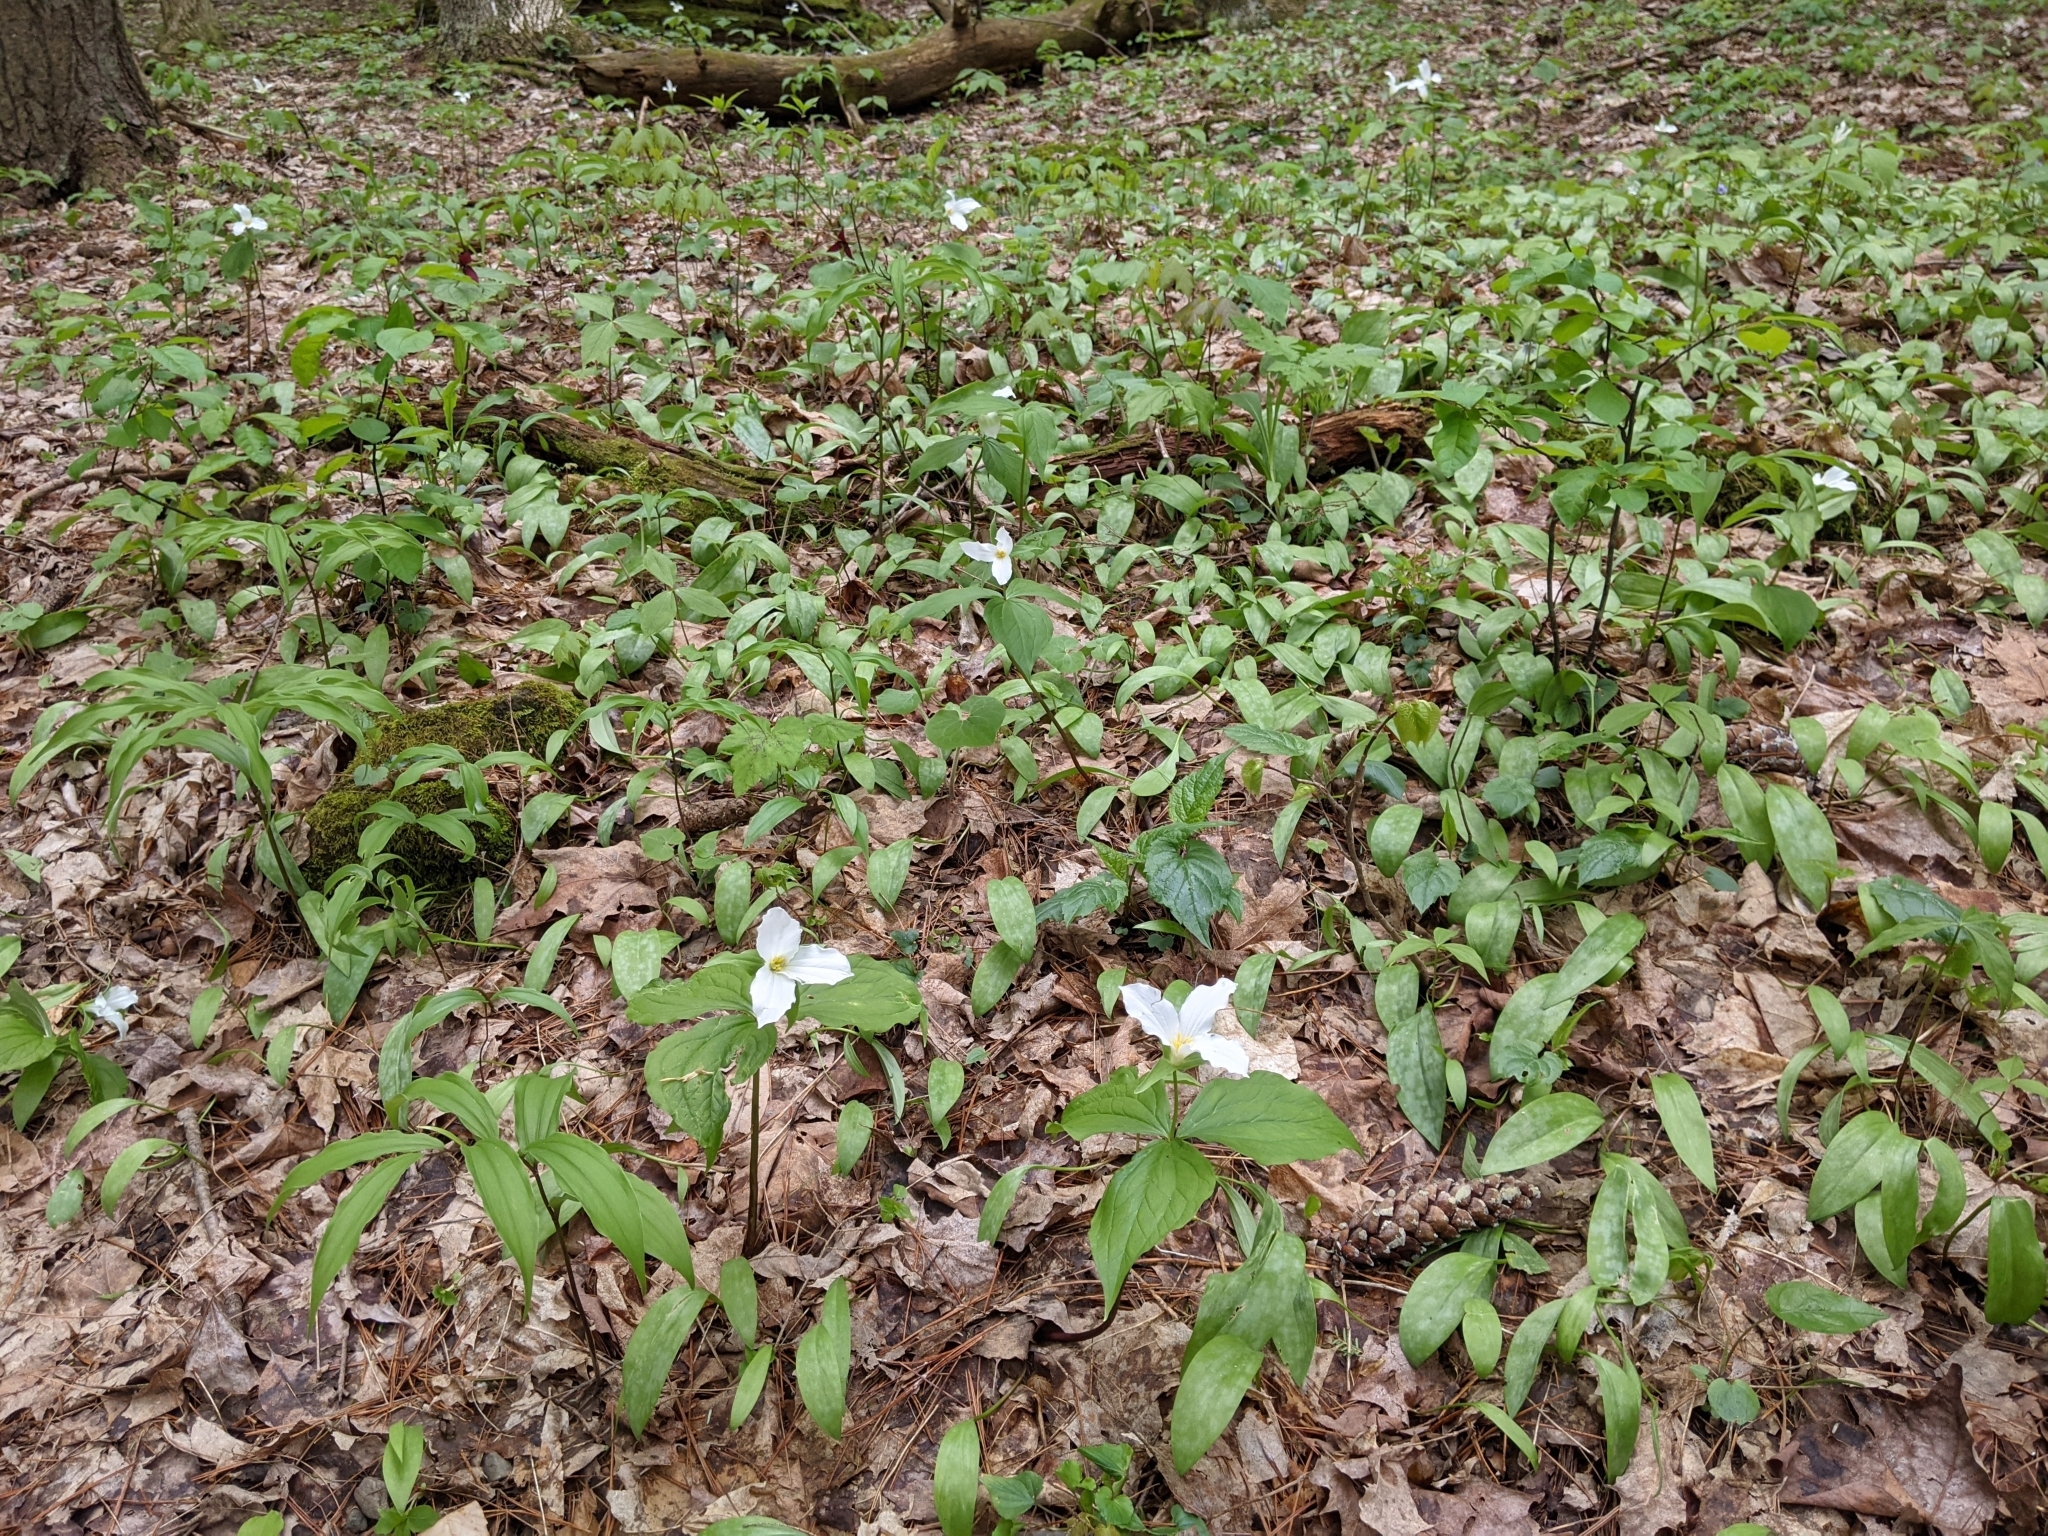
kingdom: Plantae
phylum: Tracheophyta
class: Liliopsida
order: Liliales
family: Melanthiaceae
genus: Trillium
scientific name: Trillium grandiflorum
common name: Great white trillium
